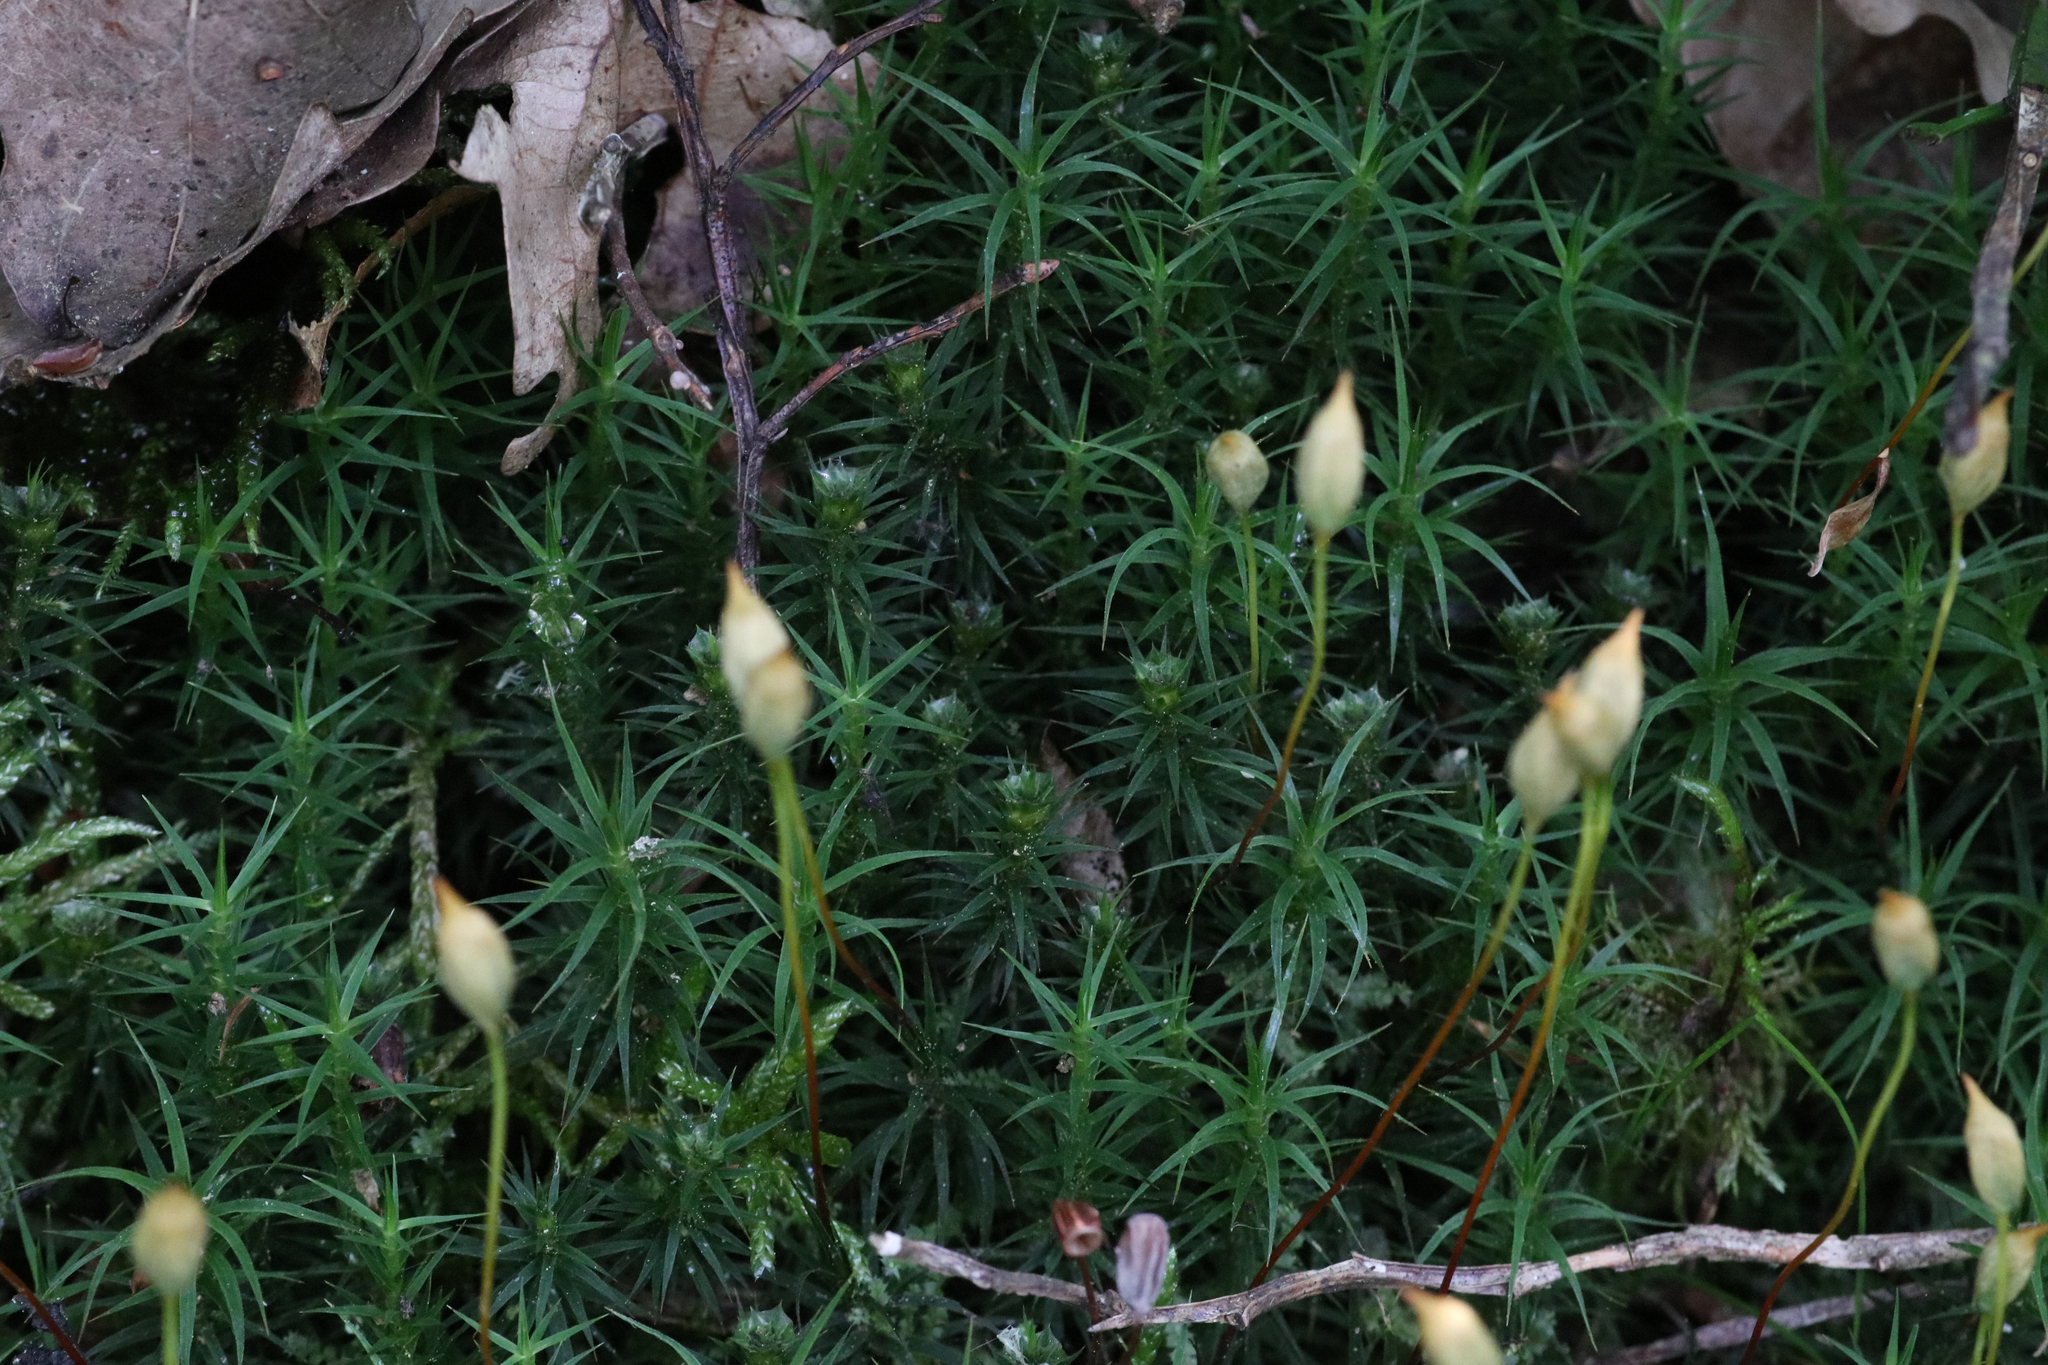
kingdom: Plantae
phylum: Bryophyta
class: Polytrichopsida
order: Polytrichales
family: Polytrichaceae
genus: Polytrichum
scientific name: Polytrichum formosum
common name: Bank haircap moss
